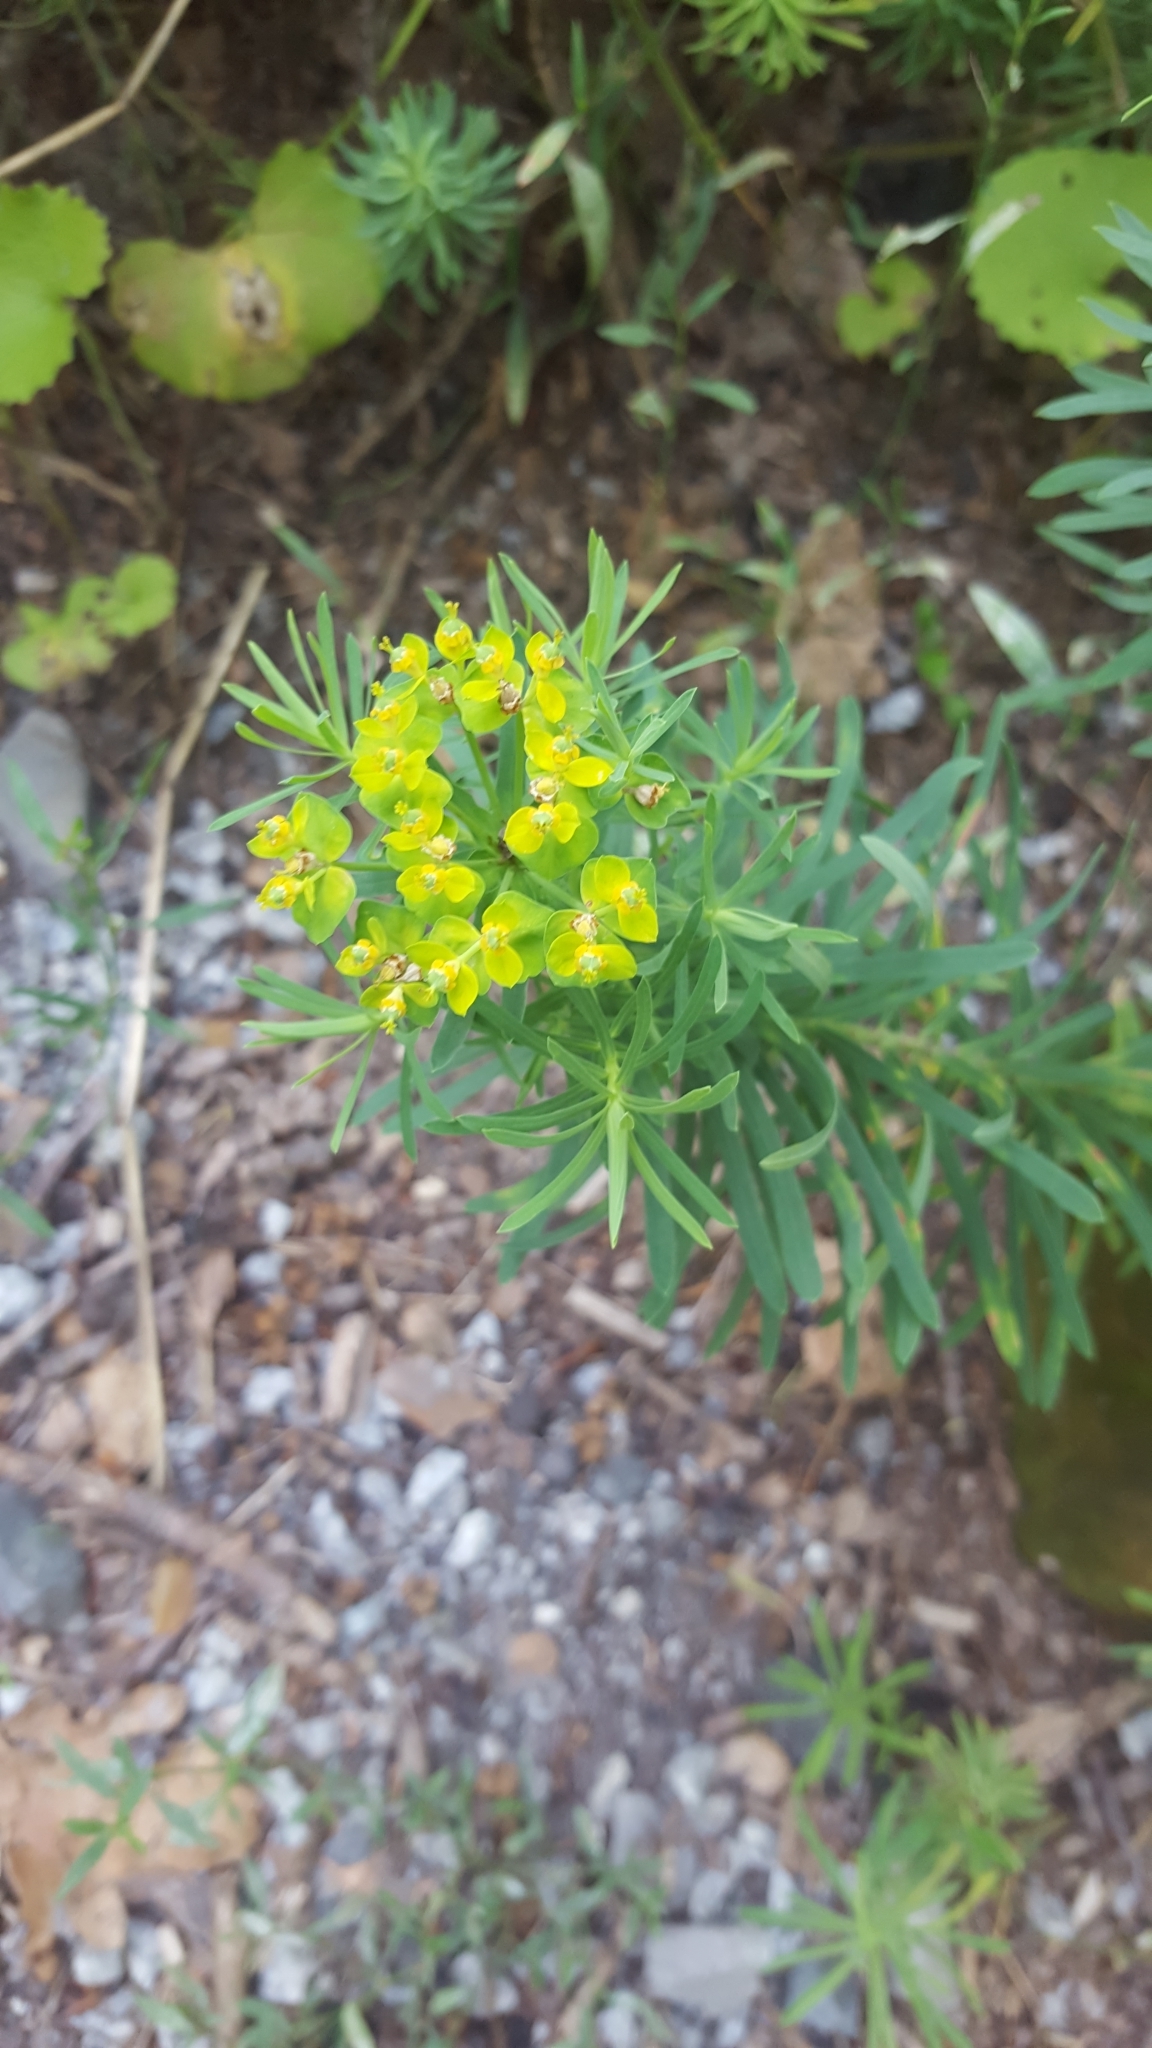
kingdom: Plantae
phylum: Tracheophyta
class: Magnoliopsida
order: Malpighiales
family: Euphorbiaceae
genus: Euphorbia
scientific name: Euphorbia cyparissias
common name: Cypress spurge
